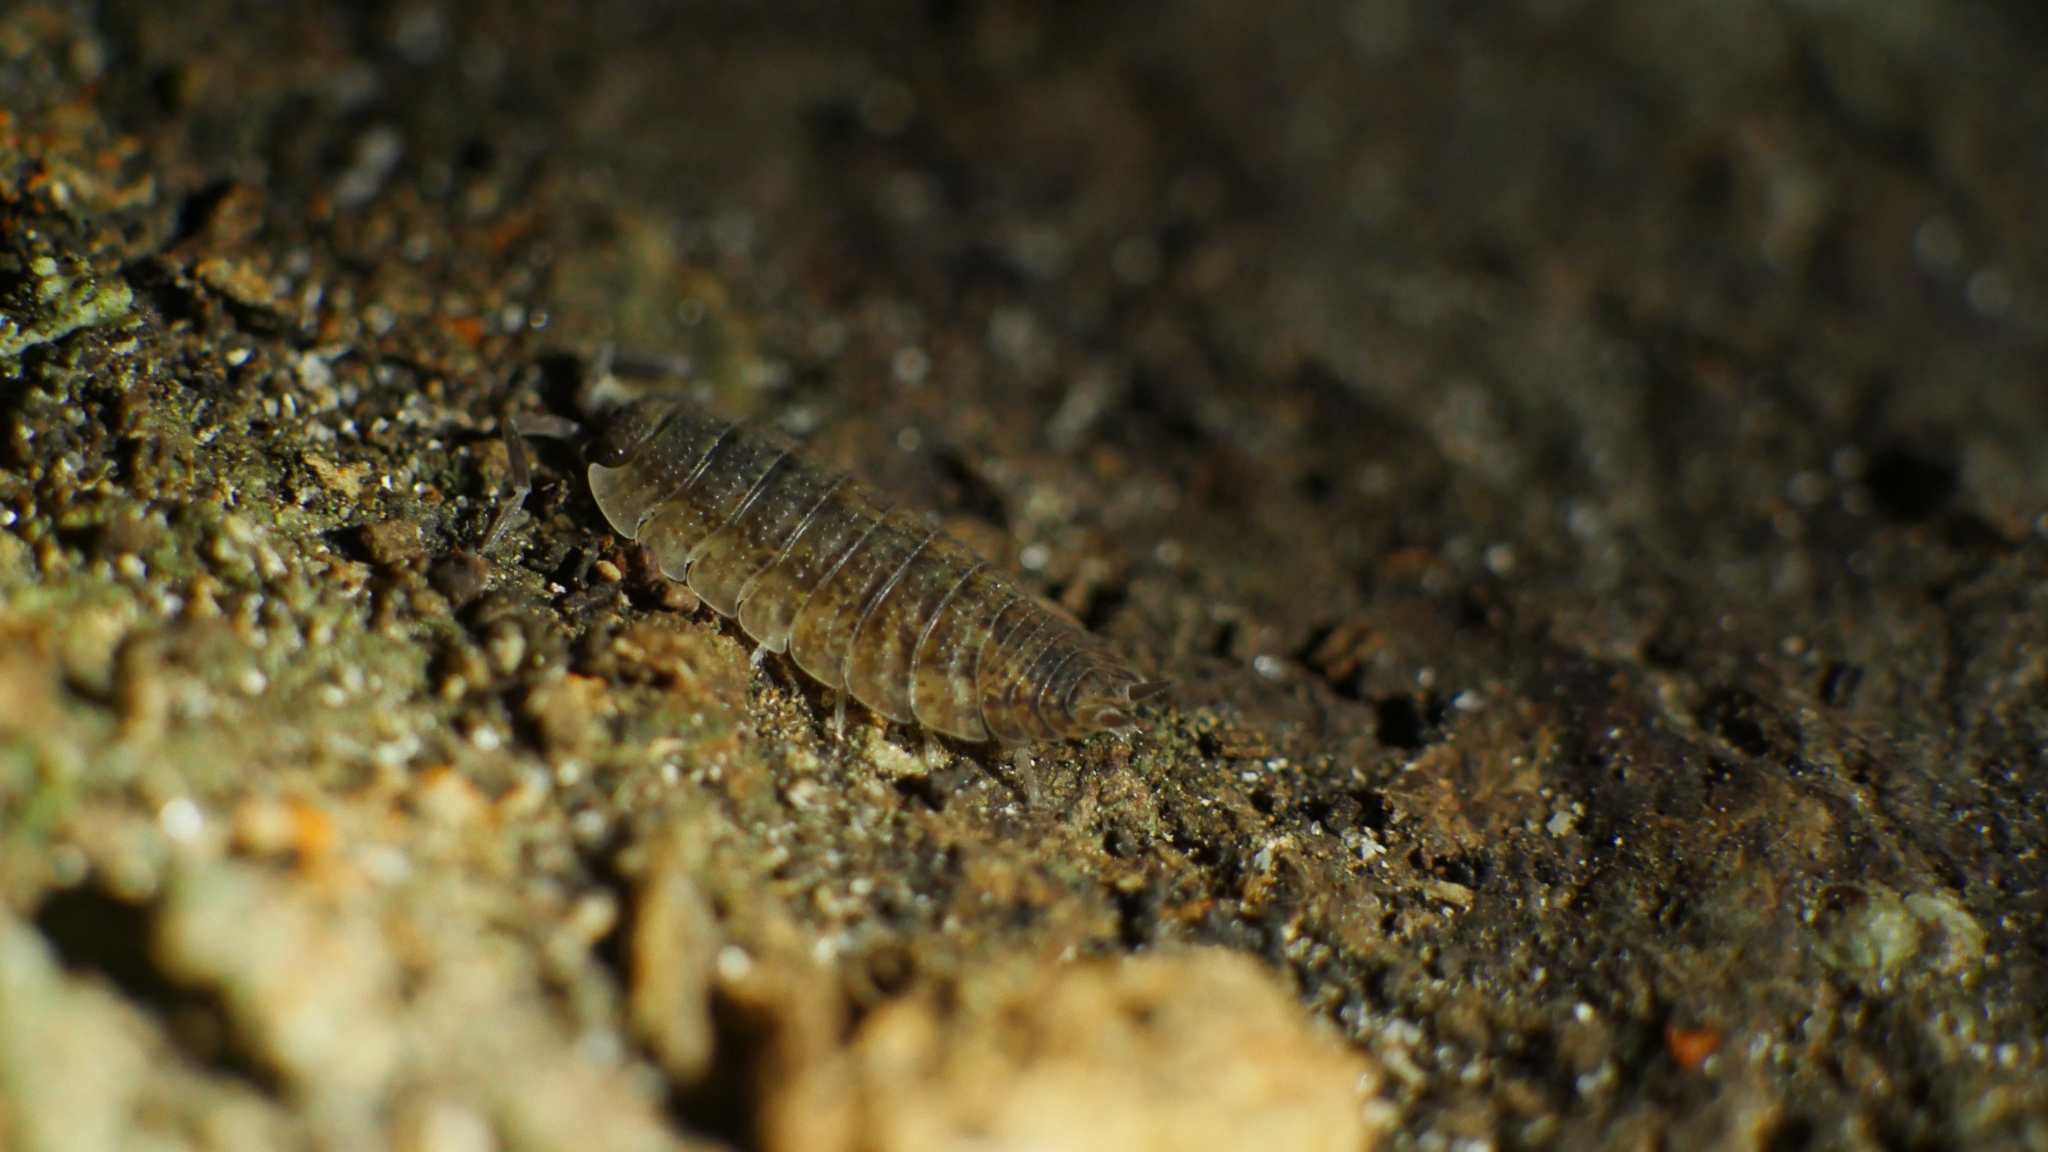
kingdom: Animalia
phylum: Arthropoda
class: Malacostraca
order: Isopoda
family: Porcellionidae
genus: Porcellio
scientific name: Porcellio scaber
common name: Common rough woodlouse
